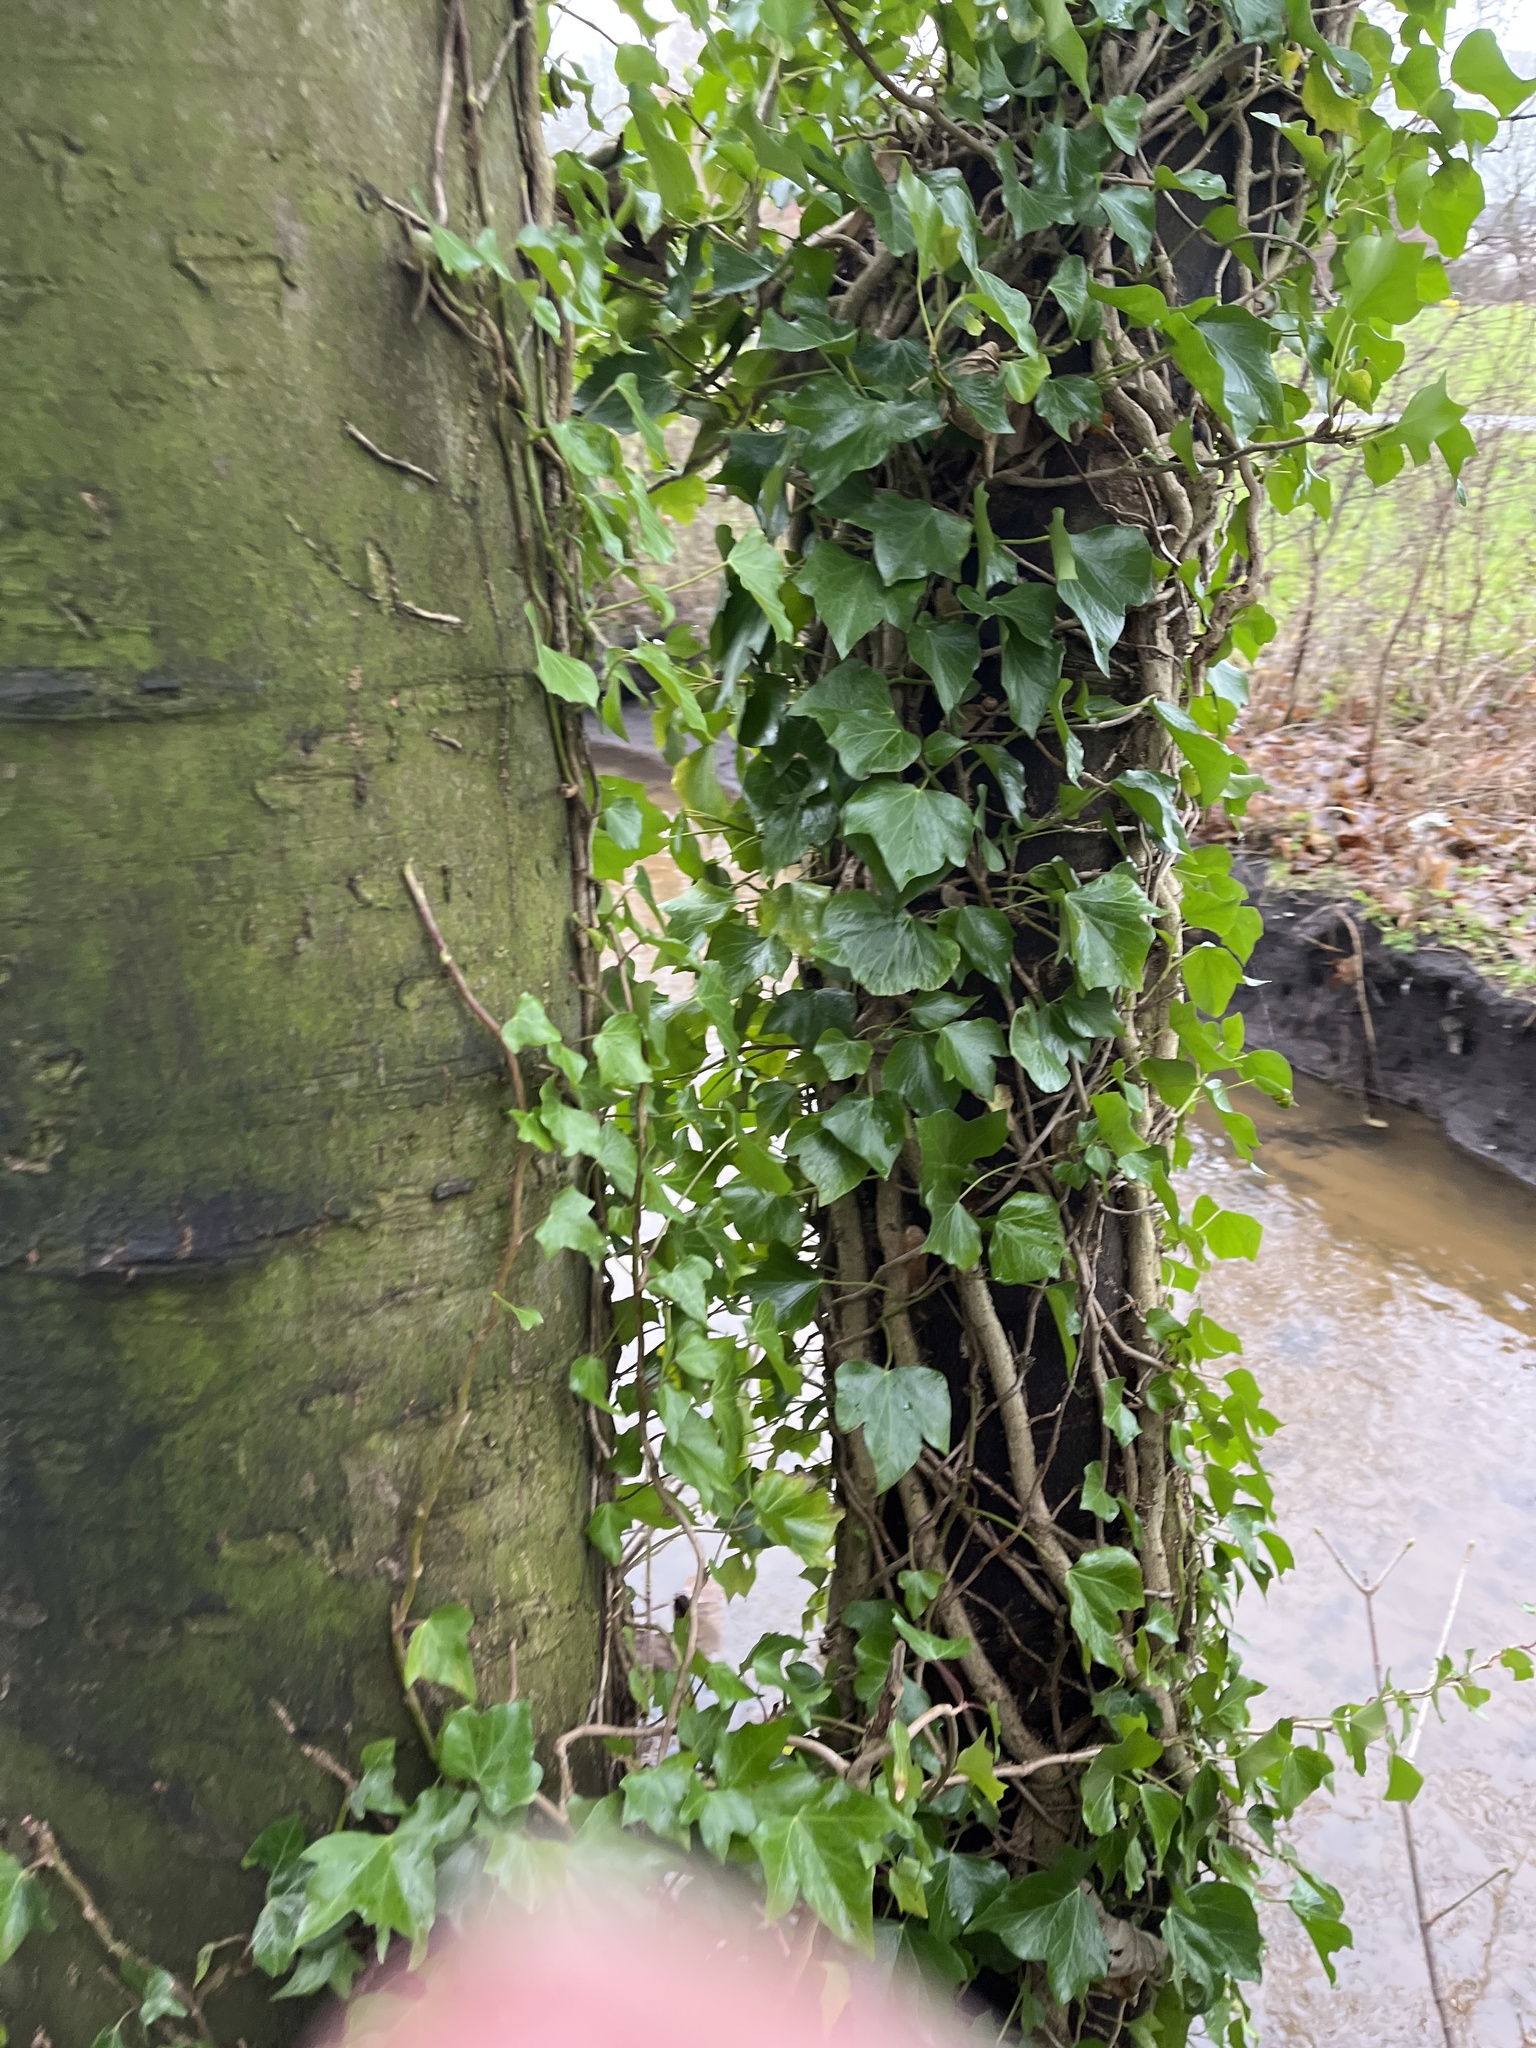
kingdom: Plantae
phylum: Tracheophyta
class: Magnoliopsida
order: Apiales
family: Araliaceae
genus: Hedera
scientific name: Hedera helix
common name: Ivy
